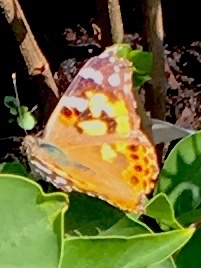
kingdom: Animalia
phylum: Arthropoda
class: Insecta
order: Lepidoptera
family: Nymphalidae
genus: Vanessa
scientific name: Vanessa cardui
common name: Painted lady
